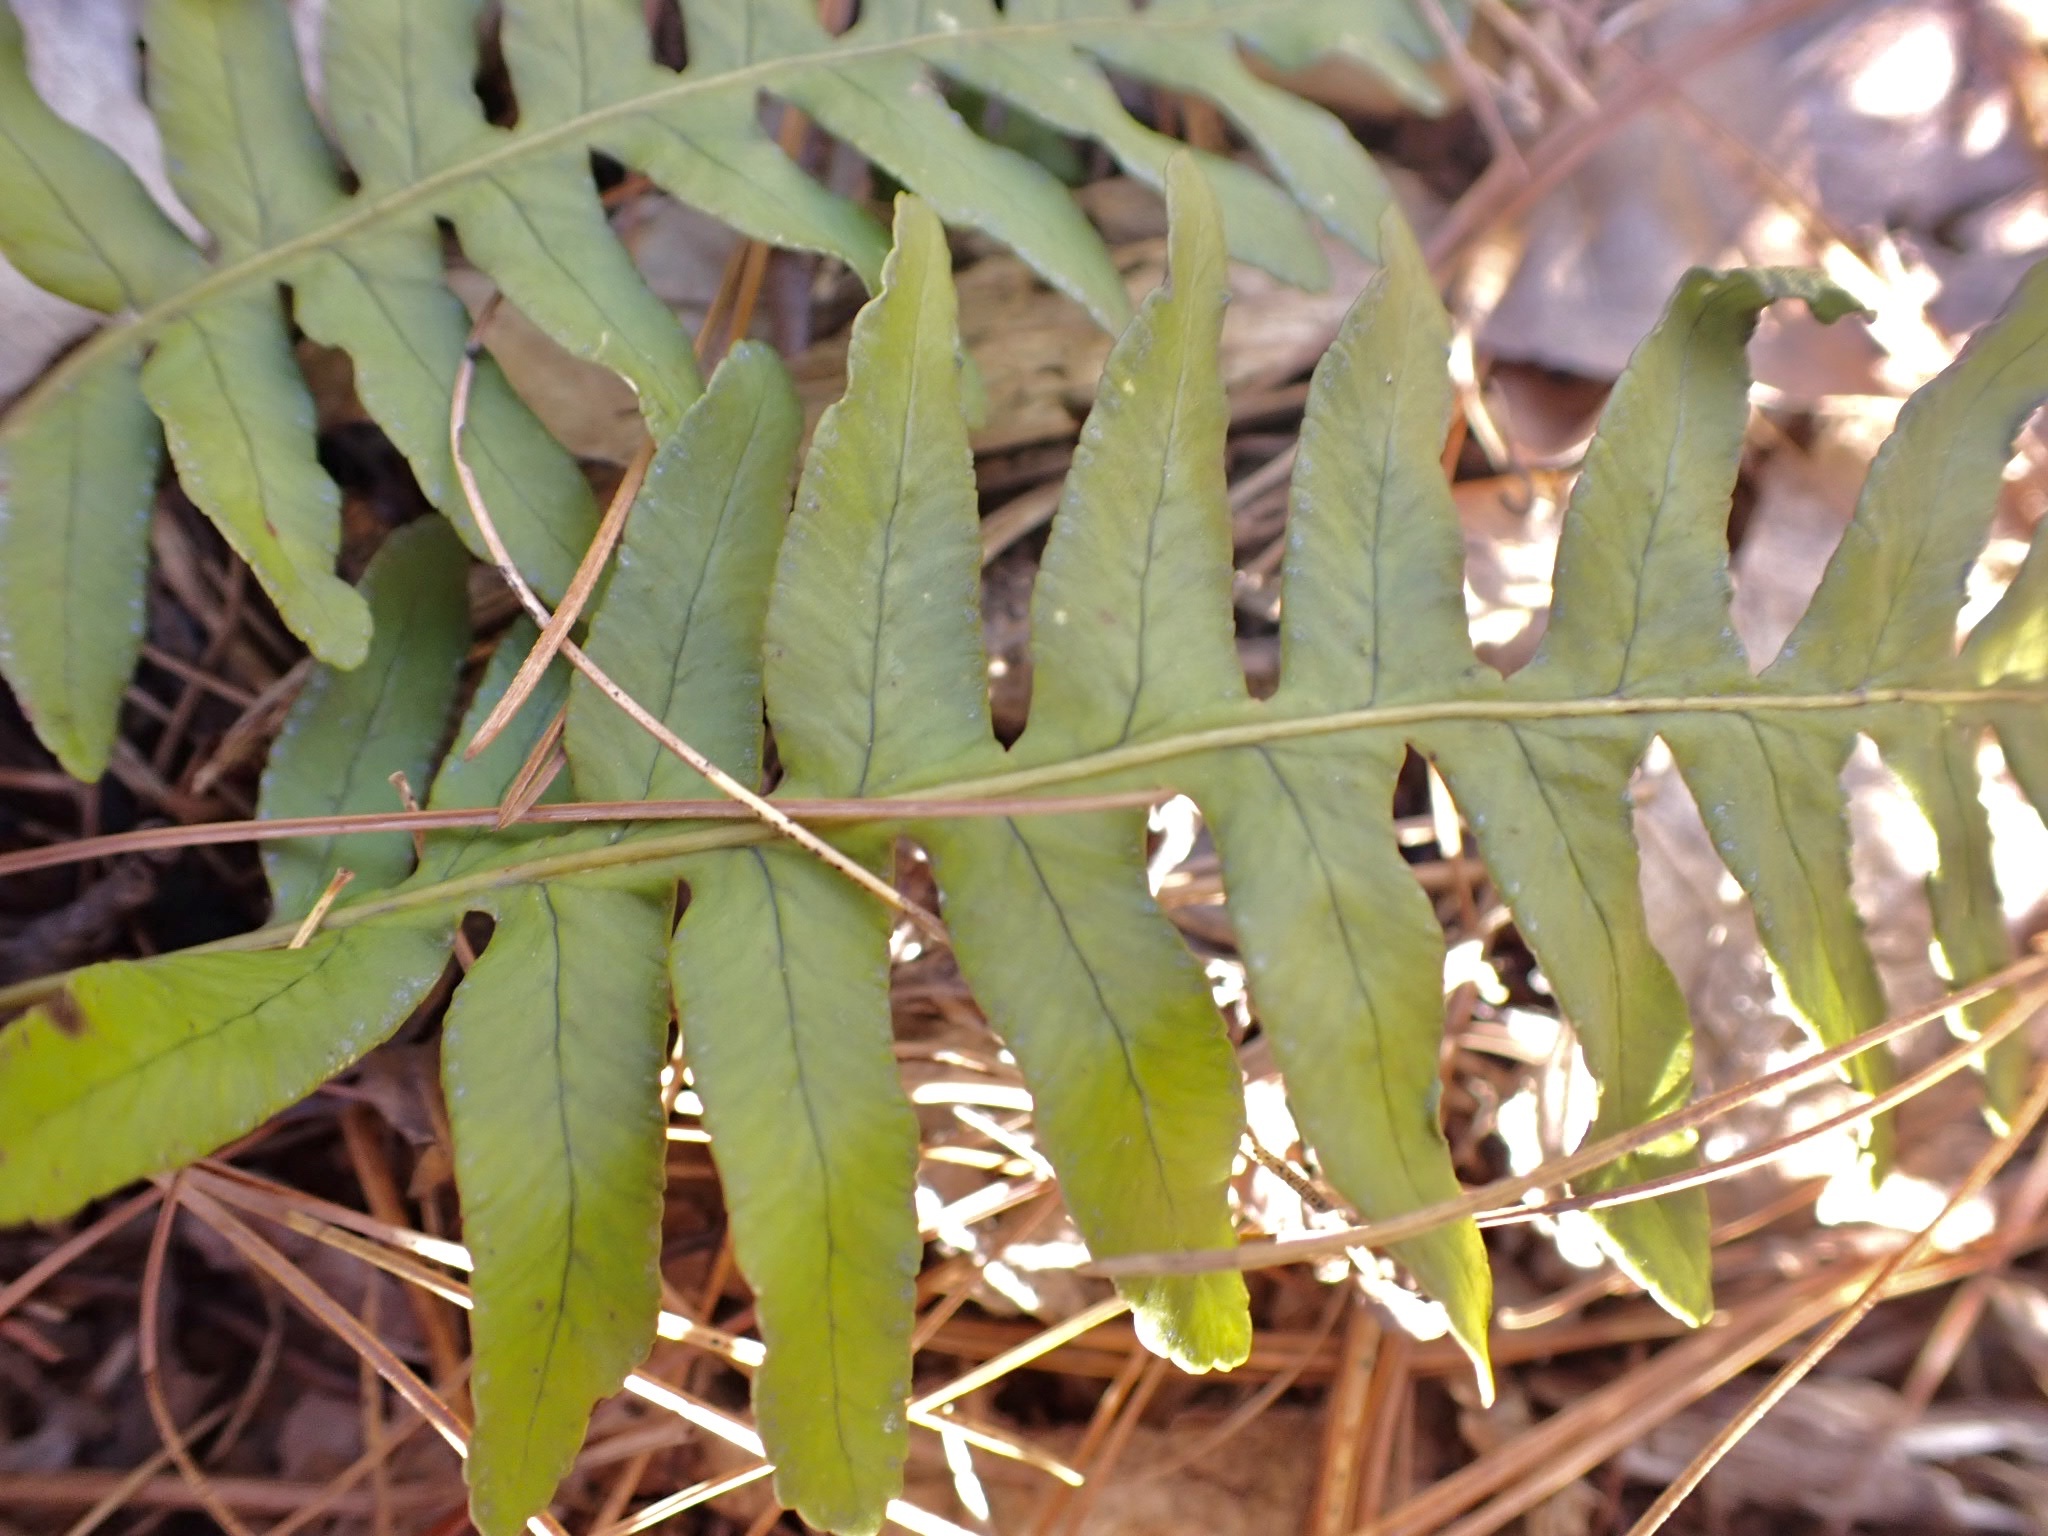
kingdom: Plantae
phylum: Tracheophyta
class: Polypodiopsida
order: Polypodiales
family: Polypodiaceae
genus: Polypodium
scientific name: Polypodium virginianum
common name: American wall fern
